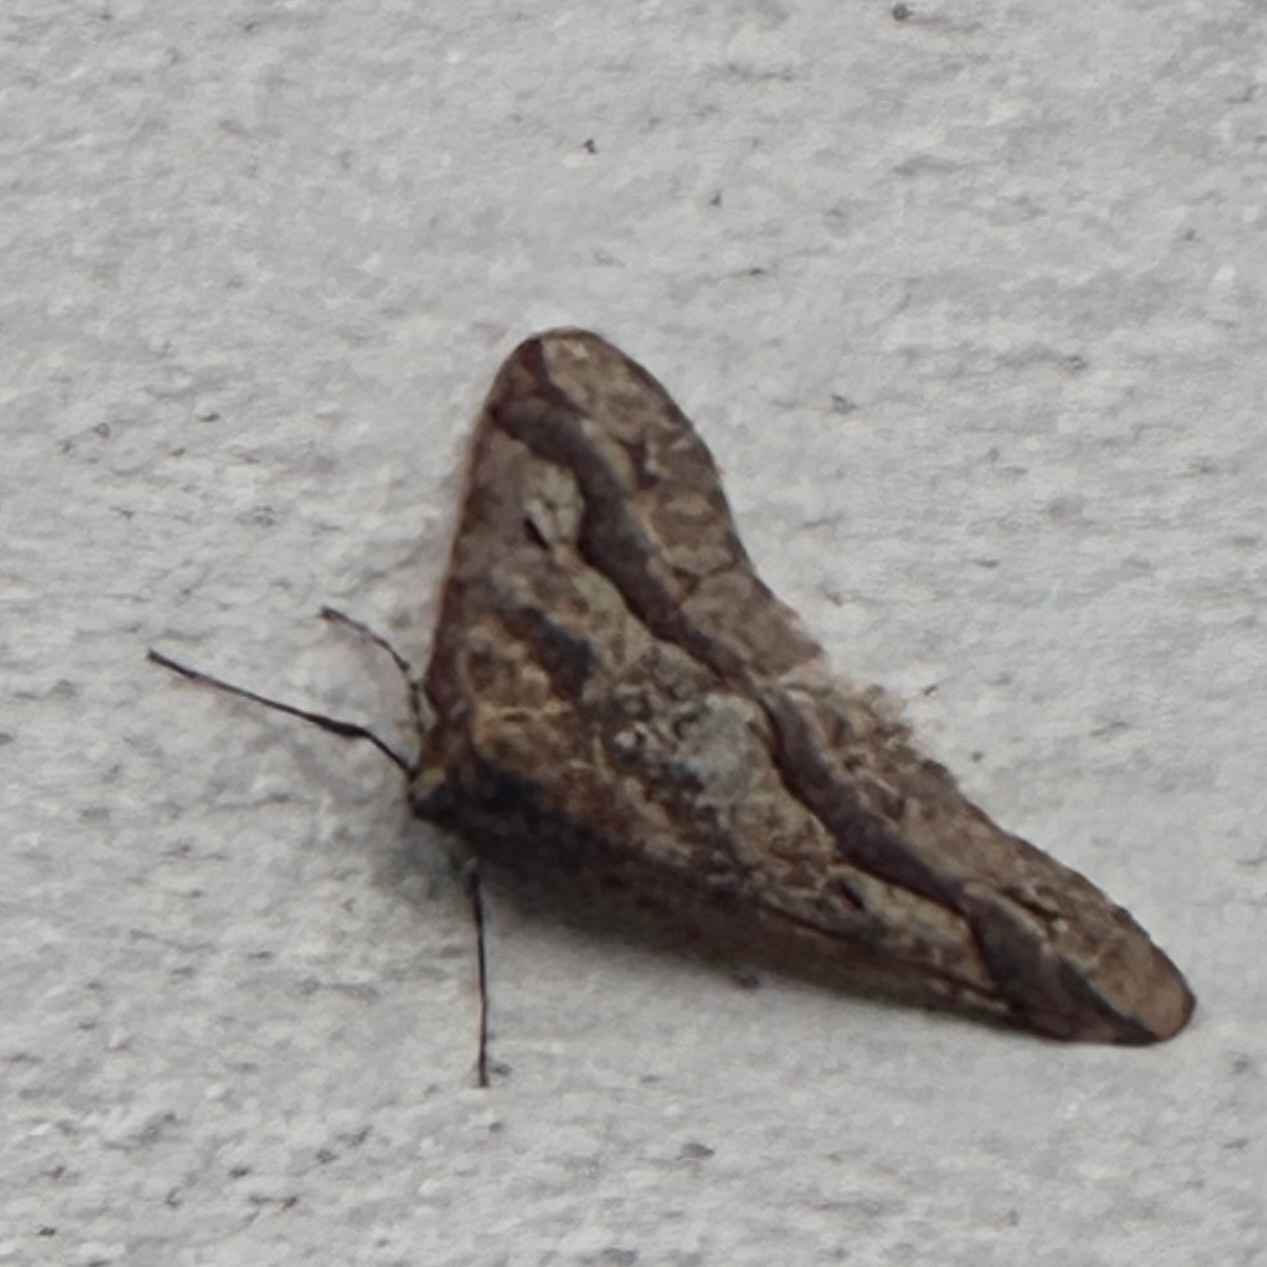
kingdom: Animalia
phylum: Arthropoda
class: Insecta
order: Lepidoptera
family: Geometridae
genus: Erannis
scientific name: Erannis defoliaria
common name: Mottled umber
